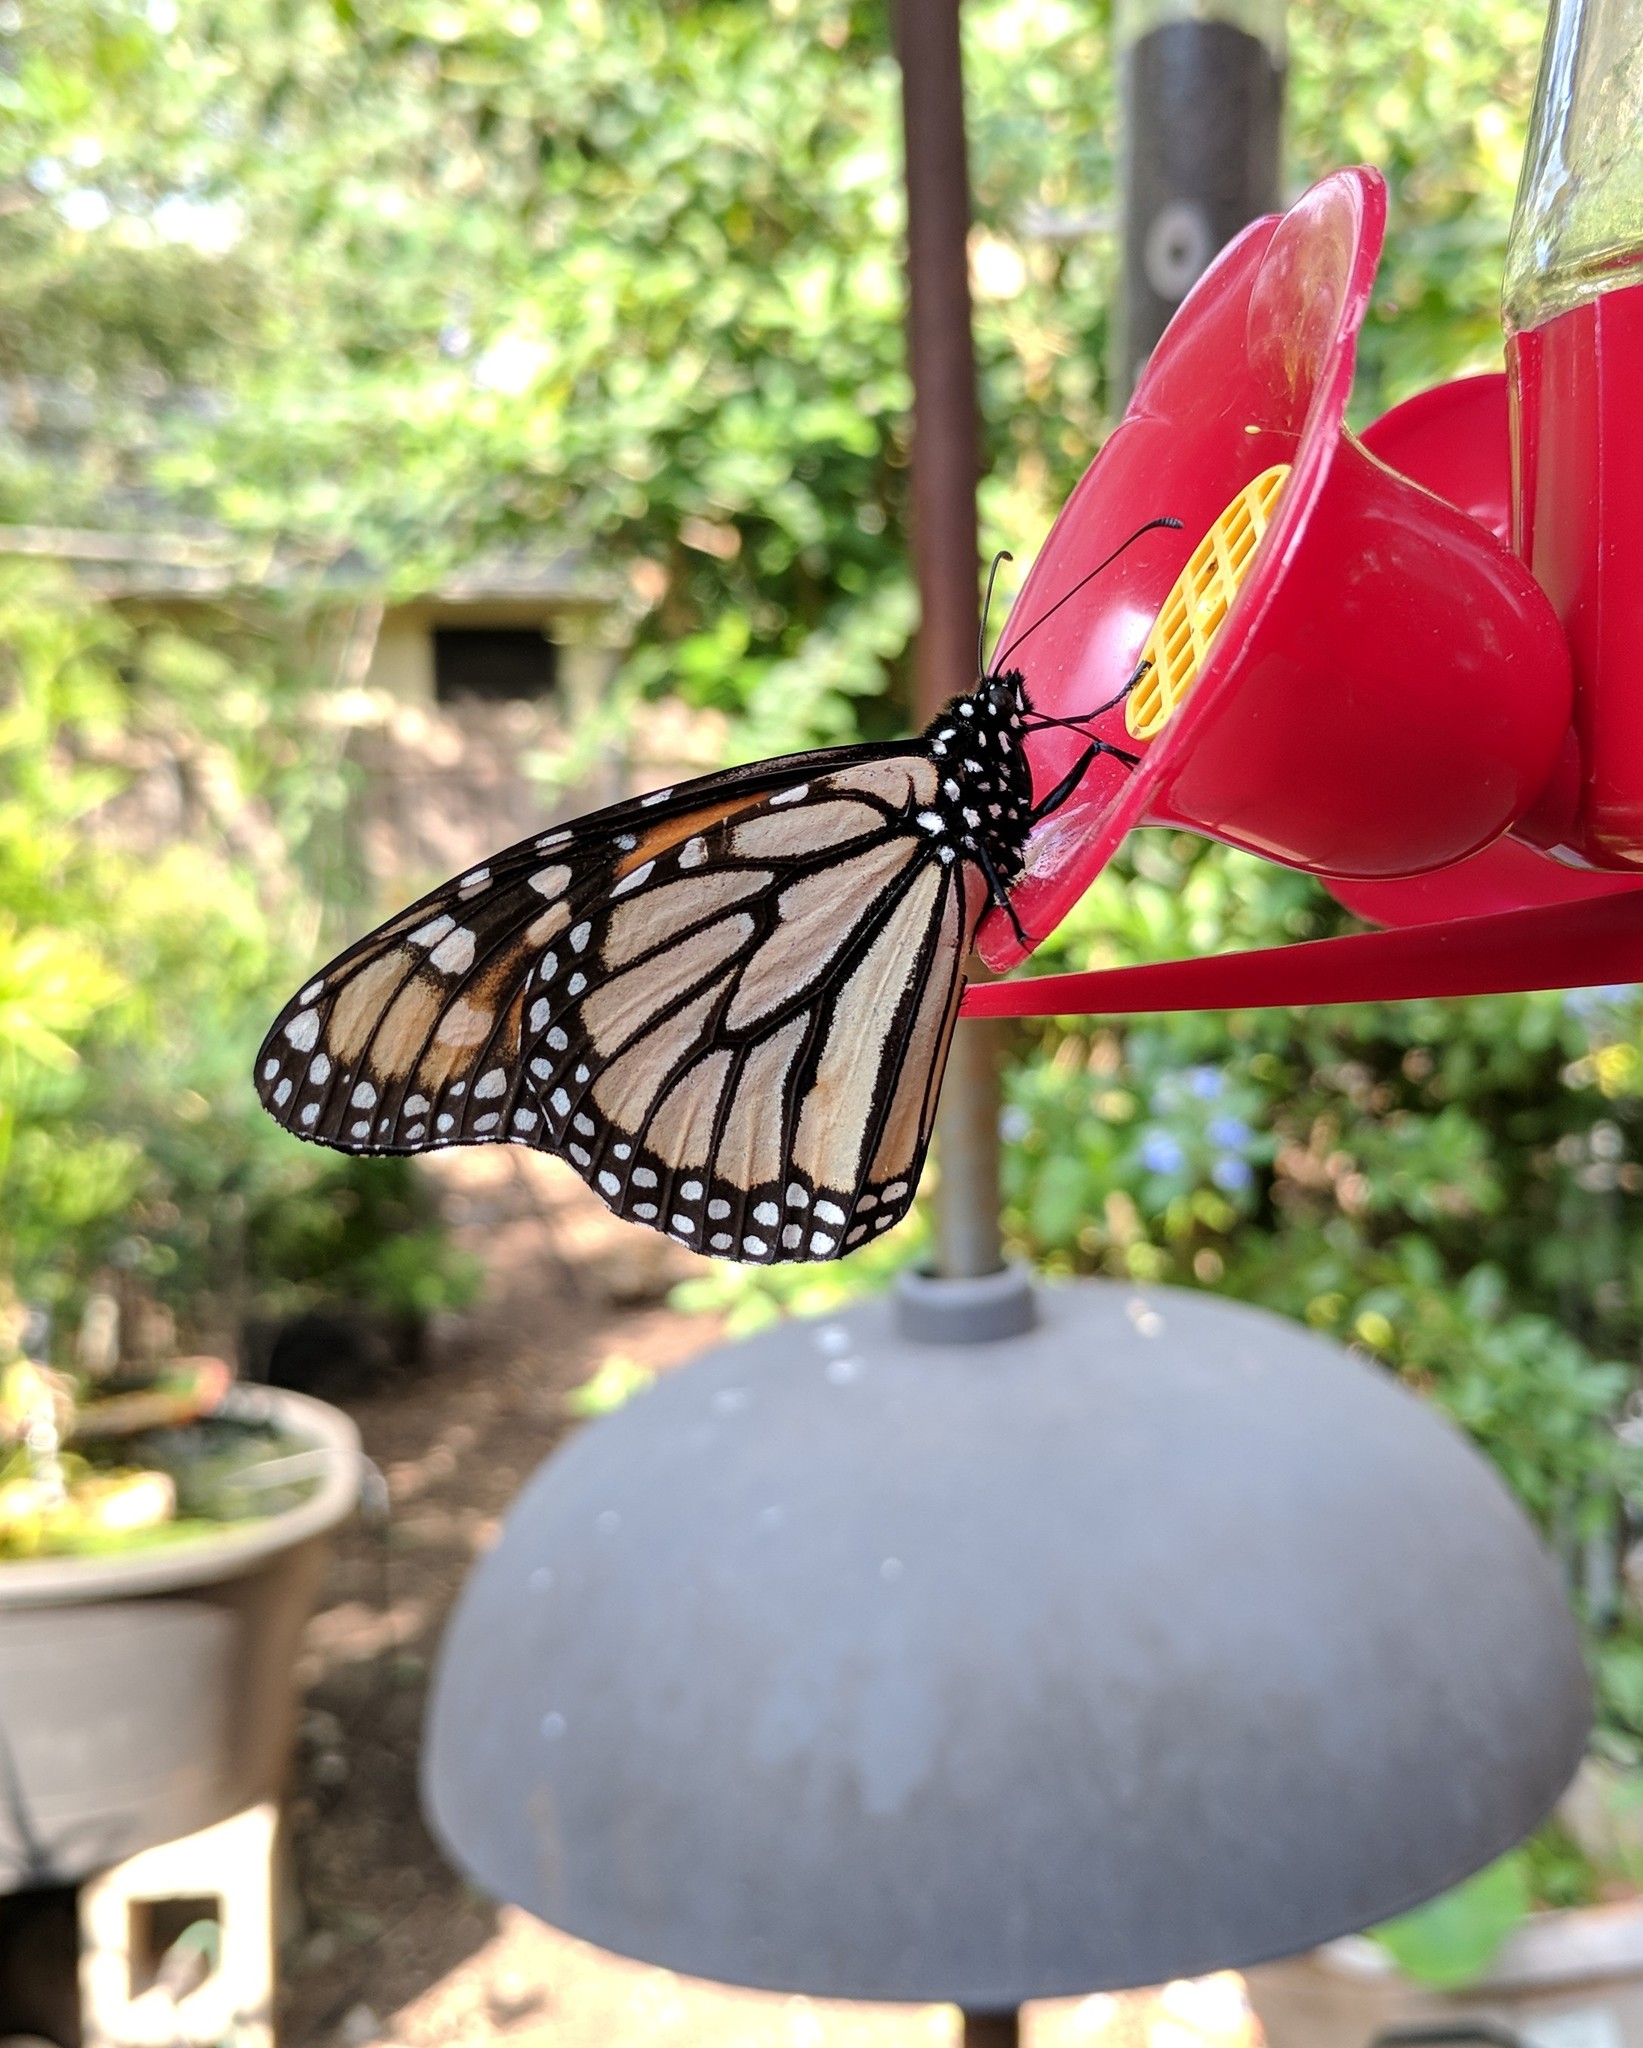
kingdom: Animalia
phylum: Arthropoda
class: Insecta
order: Lepidoptera
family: Nymphalidae
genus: Danaus
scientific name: Danaus plexippus
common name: Monarch
